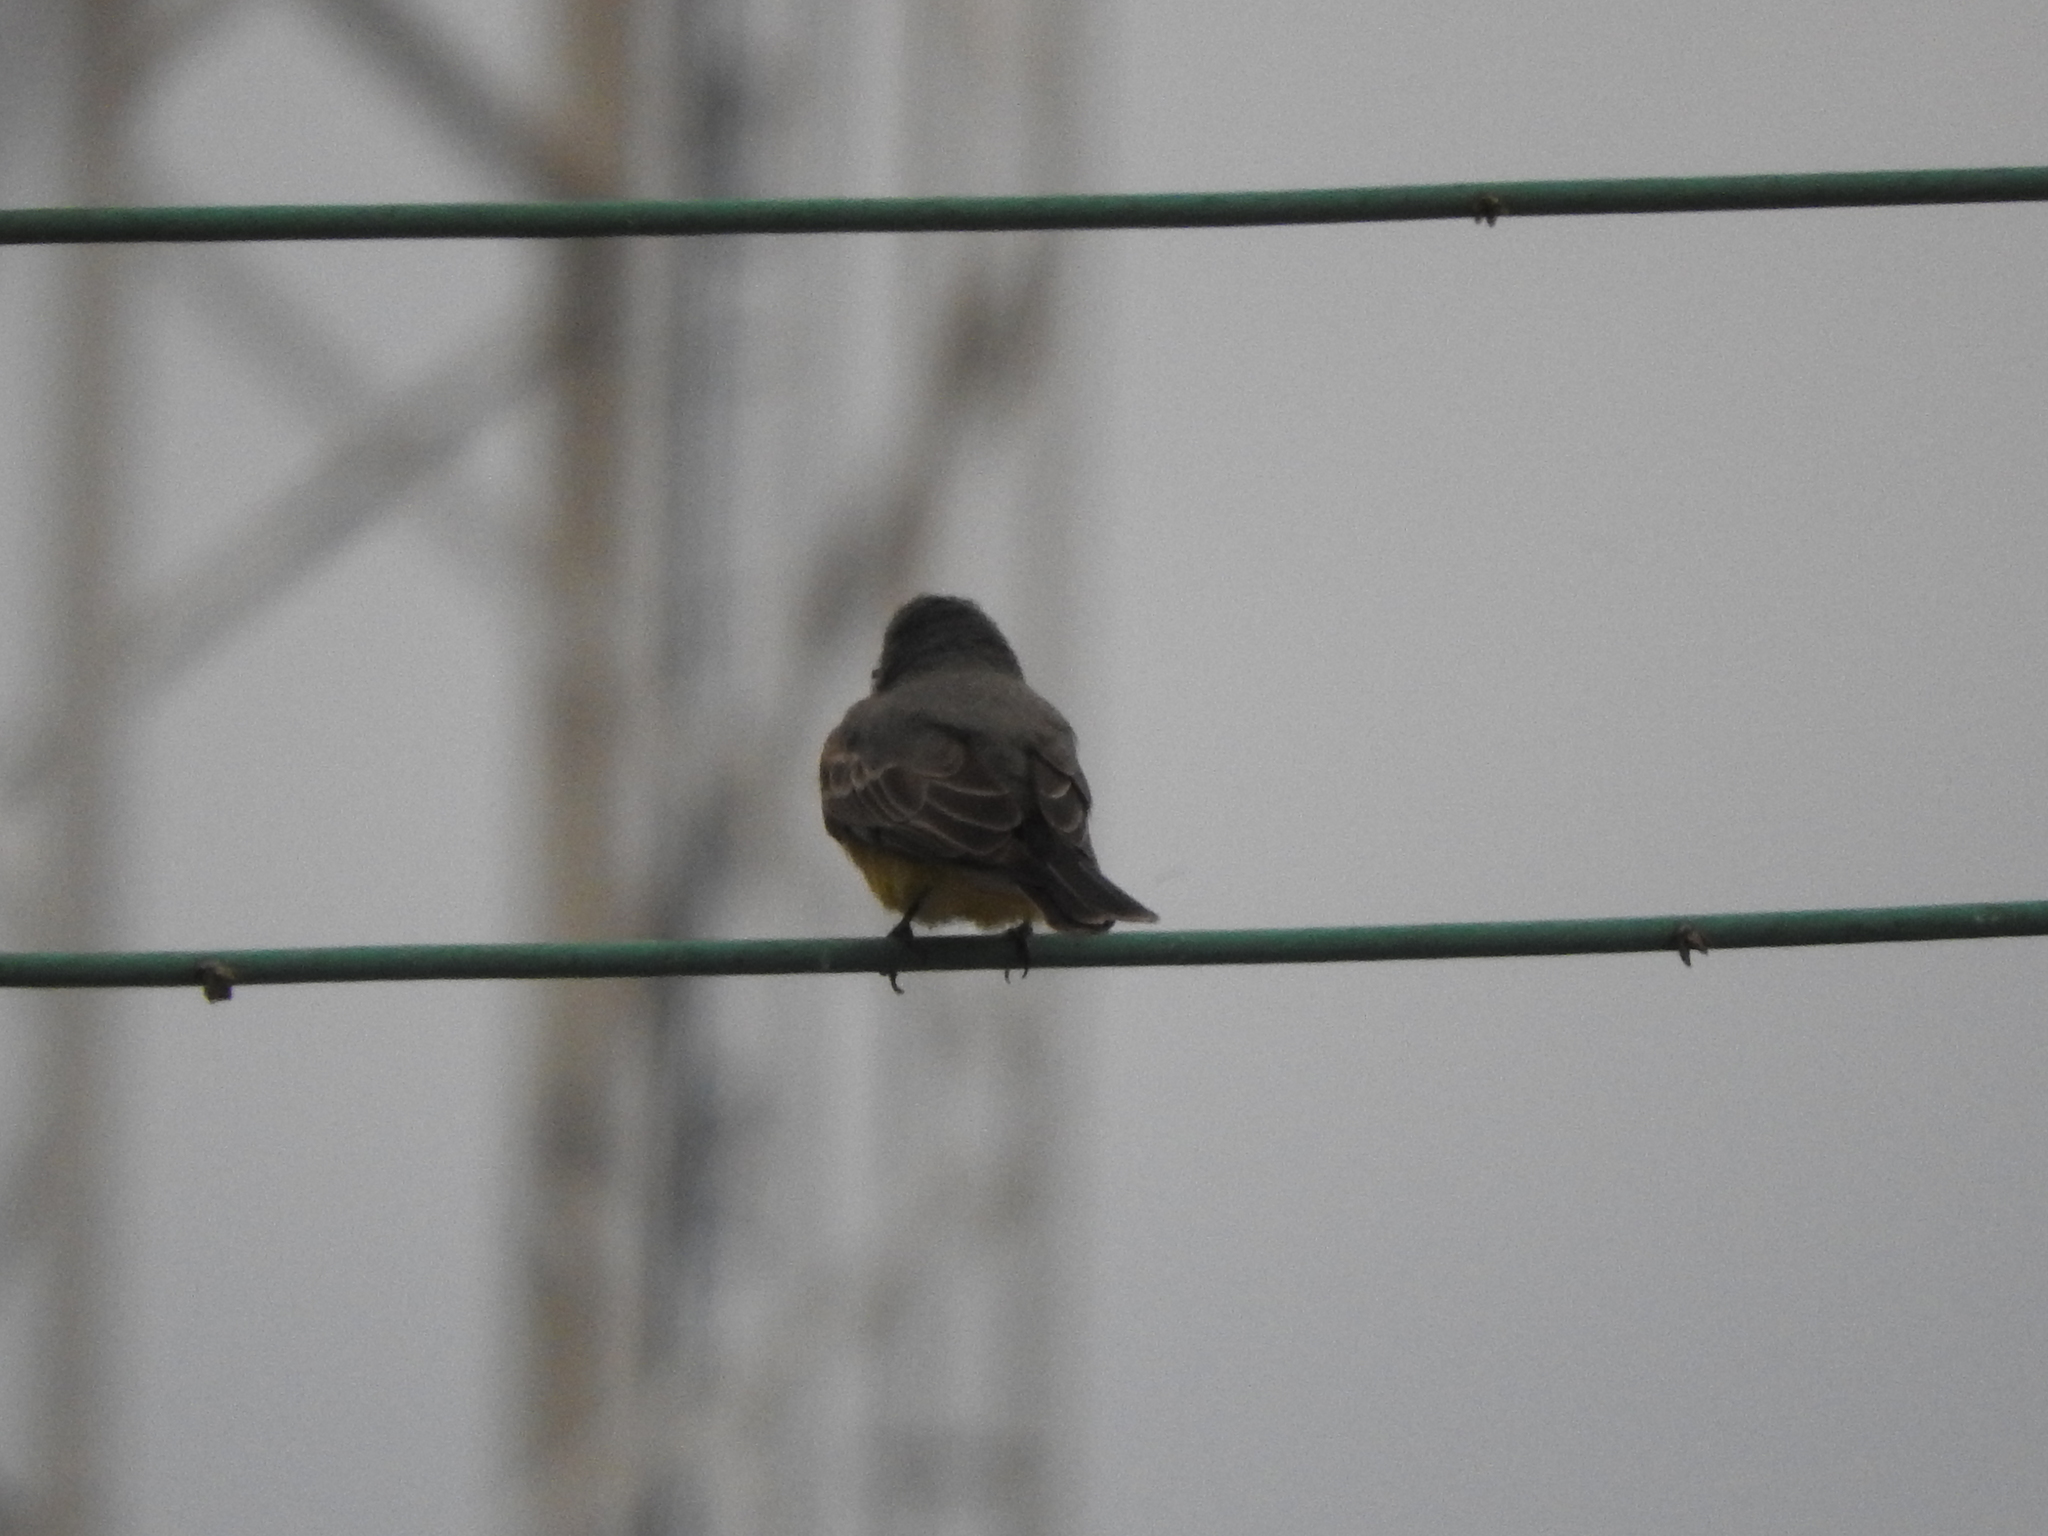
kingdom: Animalia
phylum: Chordata
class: Aves
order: Passeriformes
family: Tyrannidae
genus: Tyrannus
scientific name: Tyrannus vociferans
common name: Cassin's kingbird
